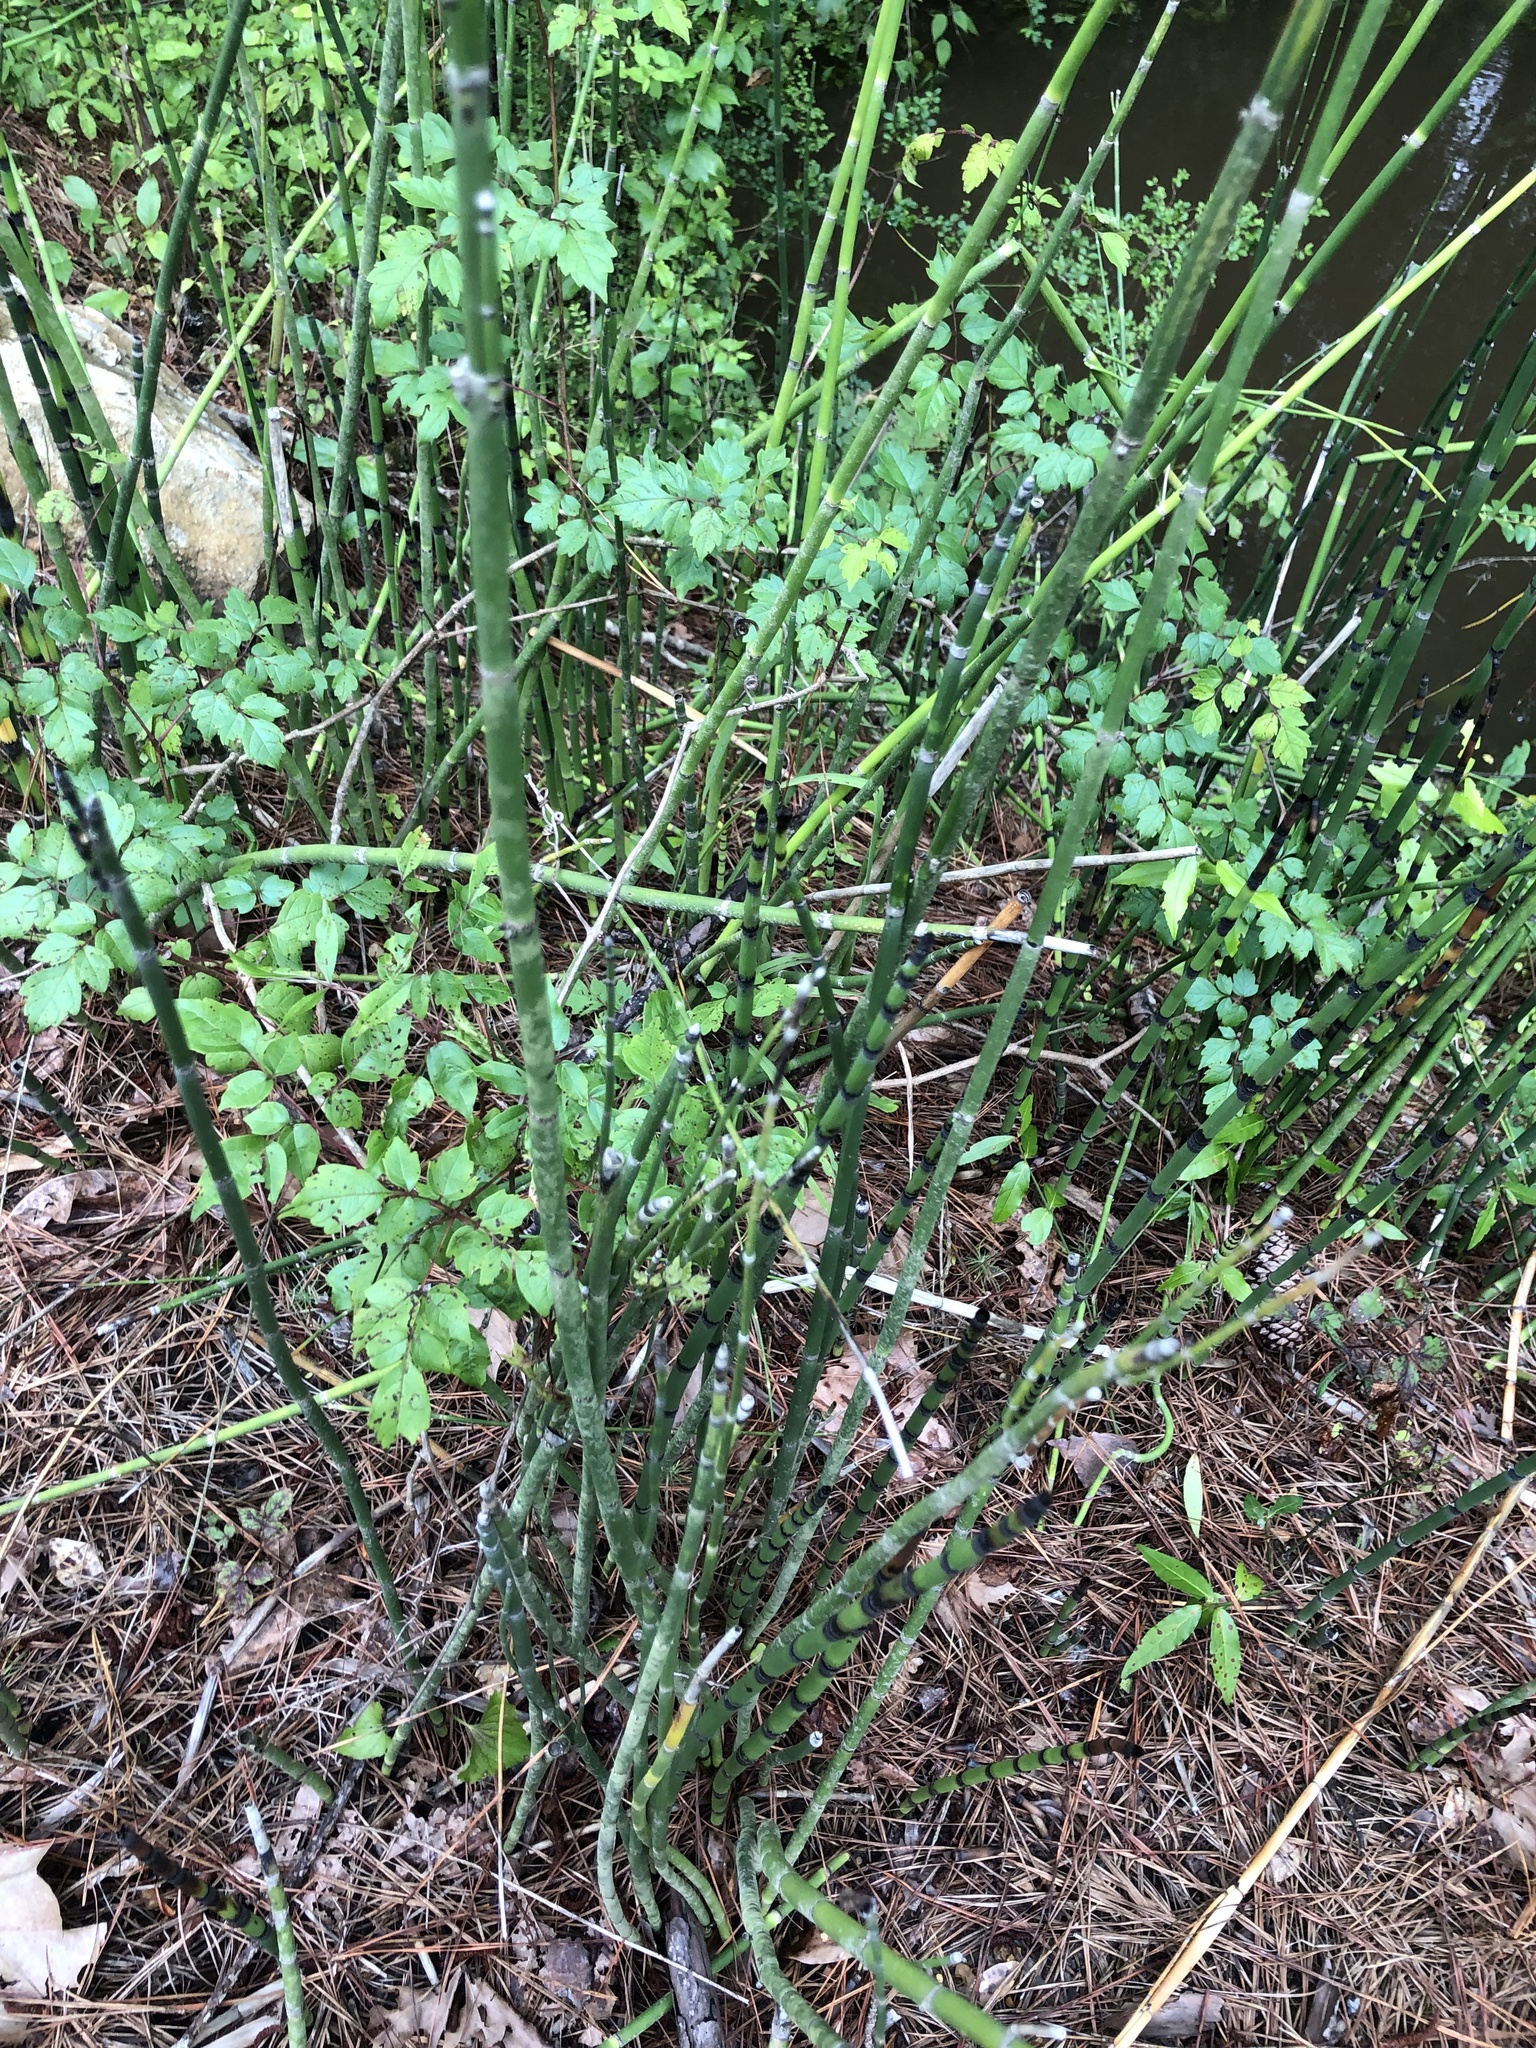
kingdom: Plantae
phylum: Tracheophyta
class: Polypodiopsida
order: Equisetales
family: Equisetaceae
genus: Equisetum
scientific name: Equisetum praealtum
